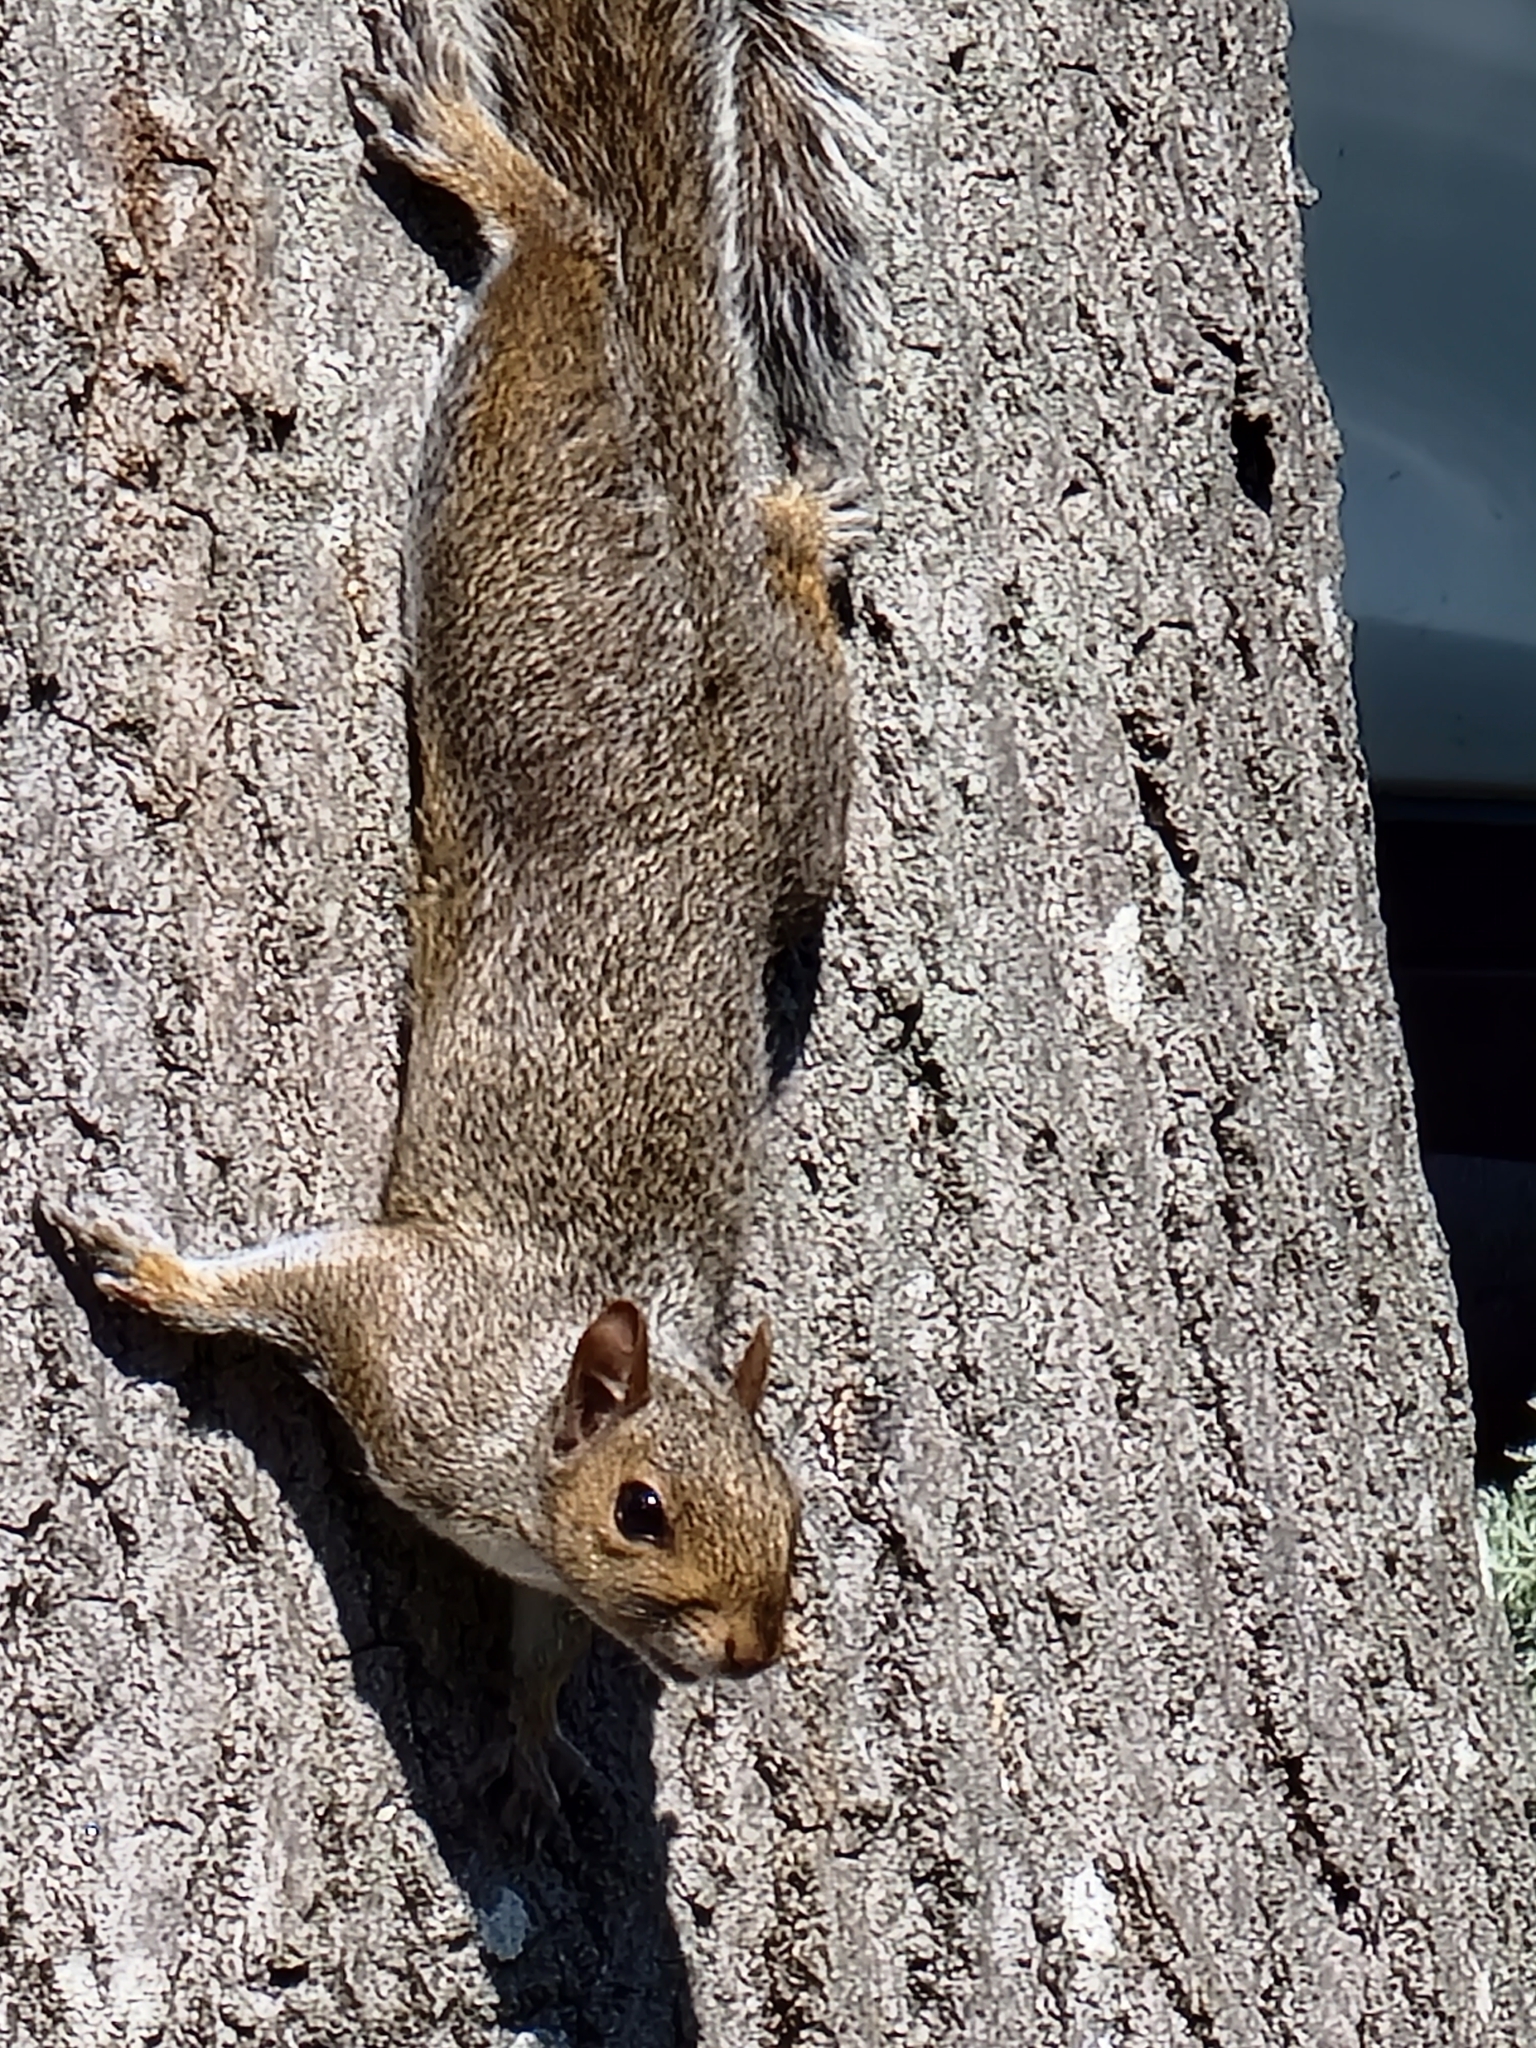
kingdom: Animalia
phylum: Chordata
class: Mammalia
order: Rodentia
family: Sciuridae
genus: Sciurus
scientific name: Sciurus carolinensis
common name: Eastern gray squirrel
